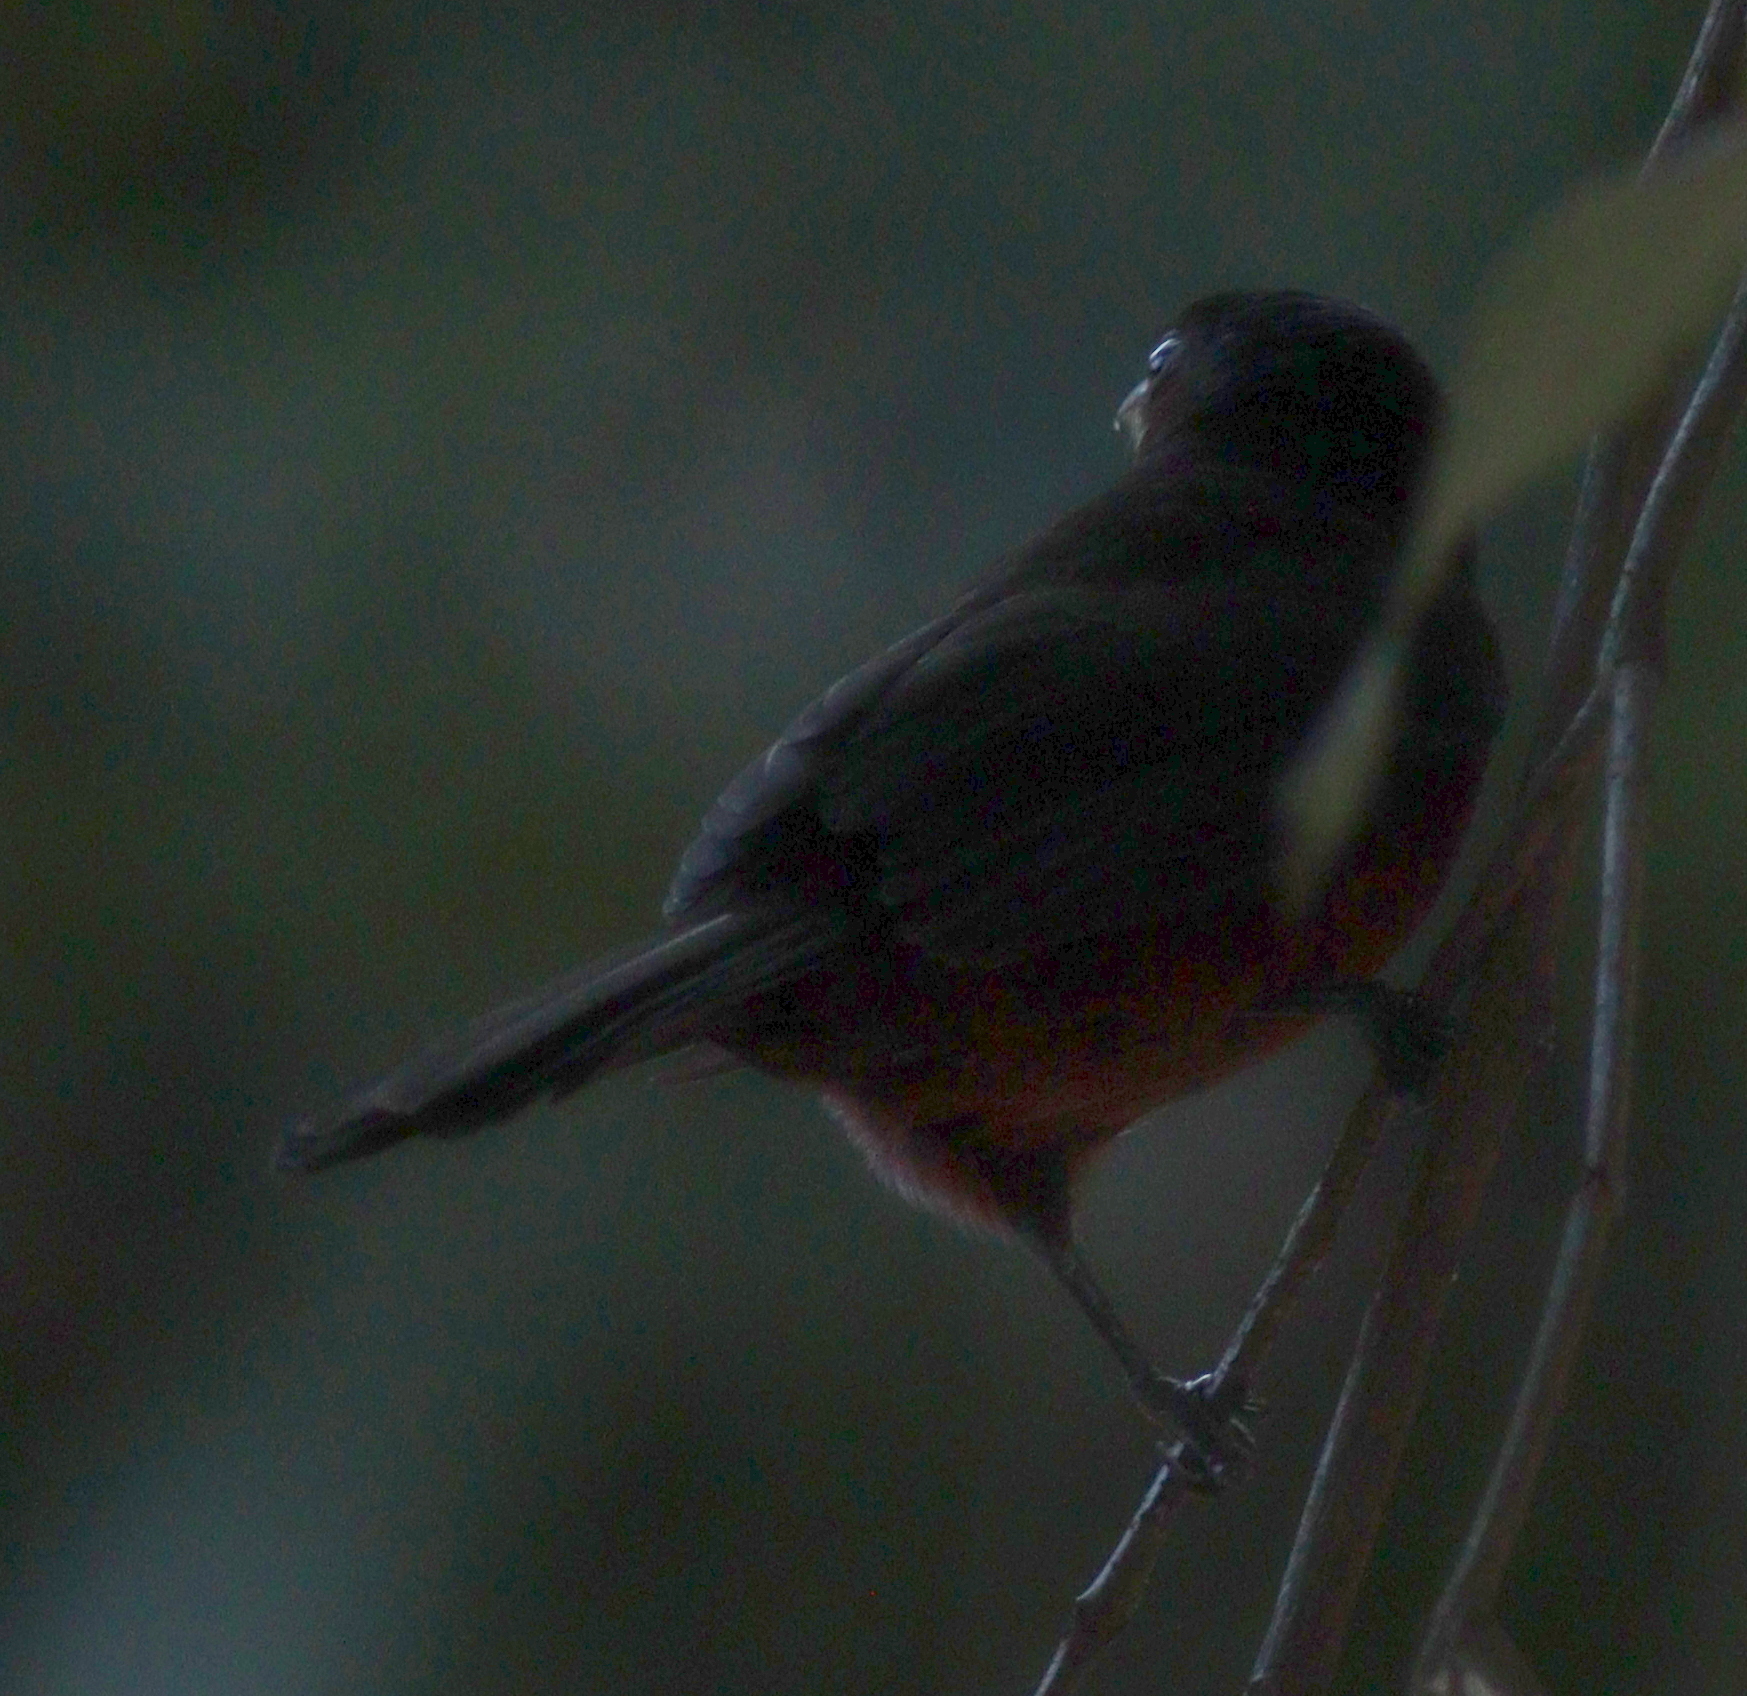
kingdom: Animalia
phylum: Chordata
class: Aves
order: Passeriformes
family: Thraupidae
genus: Ramphocelus
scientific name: Ramphocelus carbo
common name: Silver-beaked tanager
